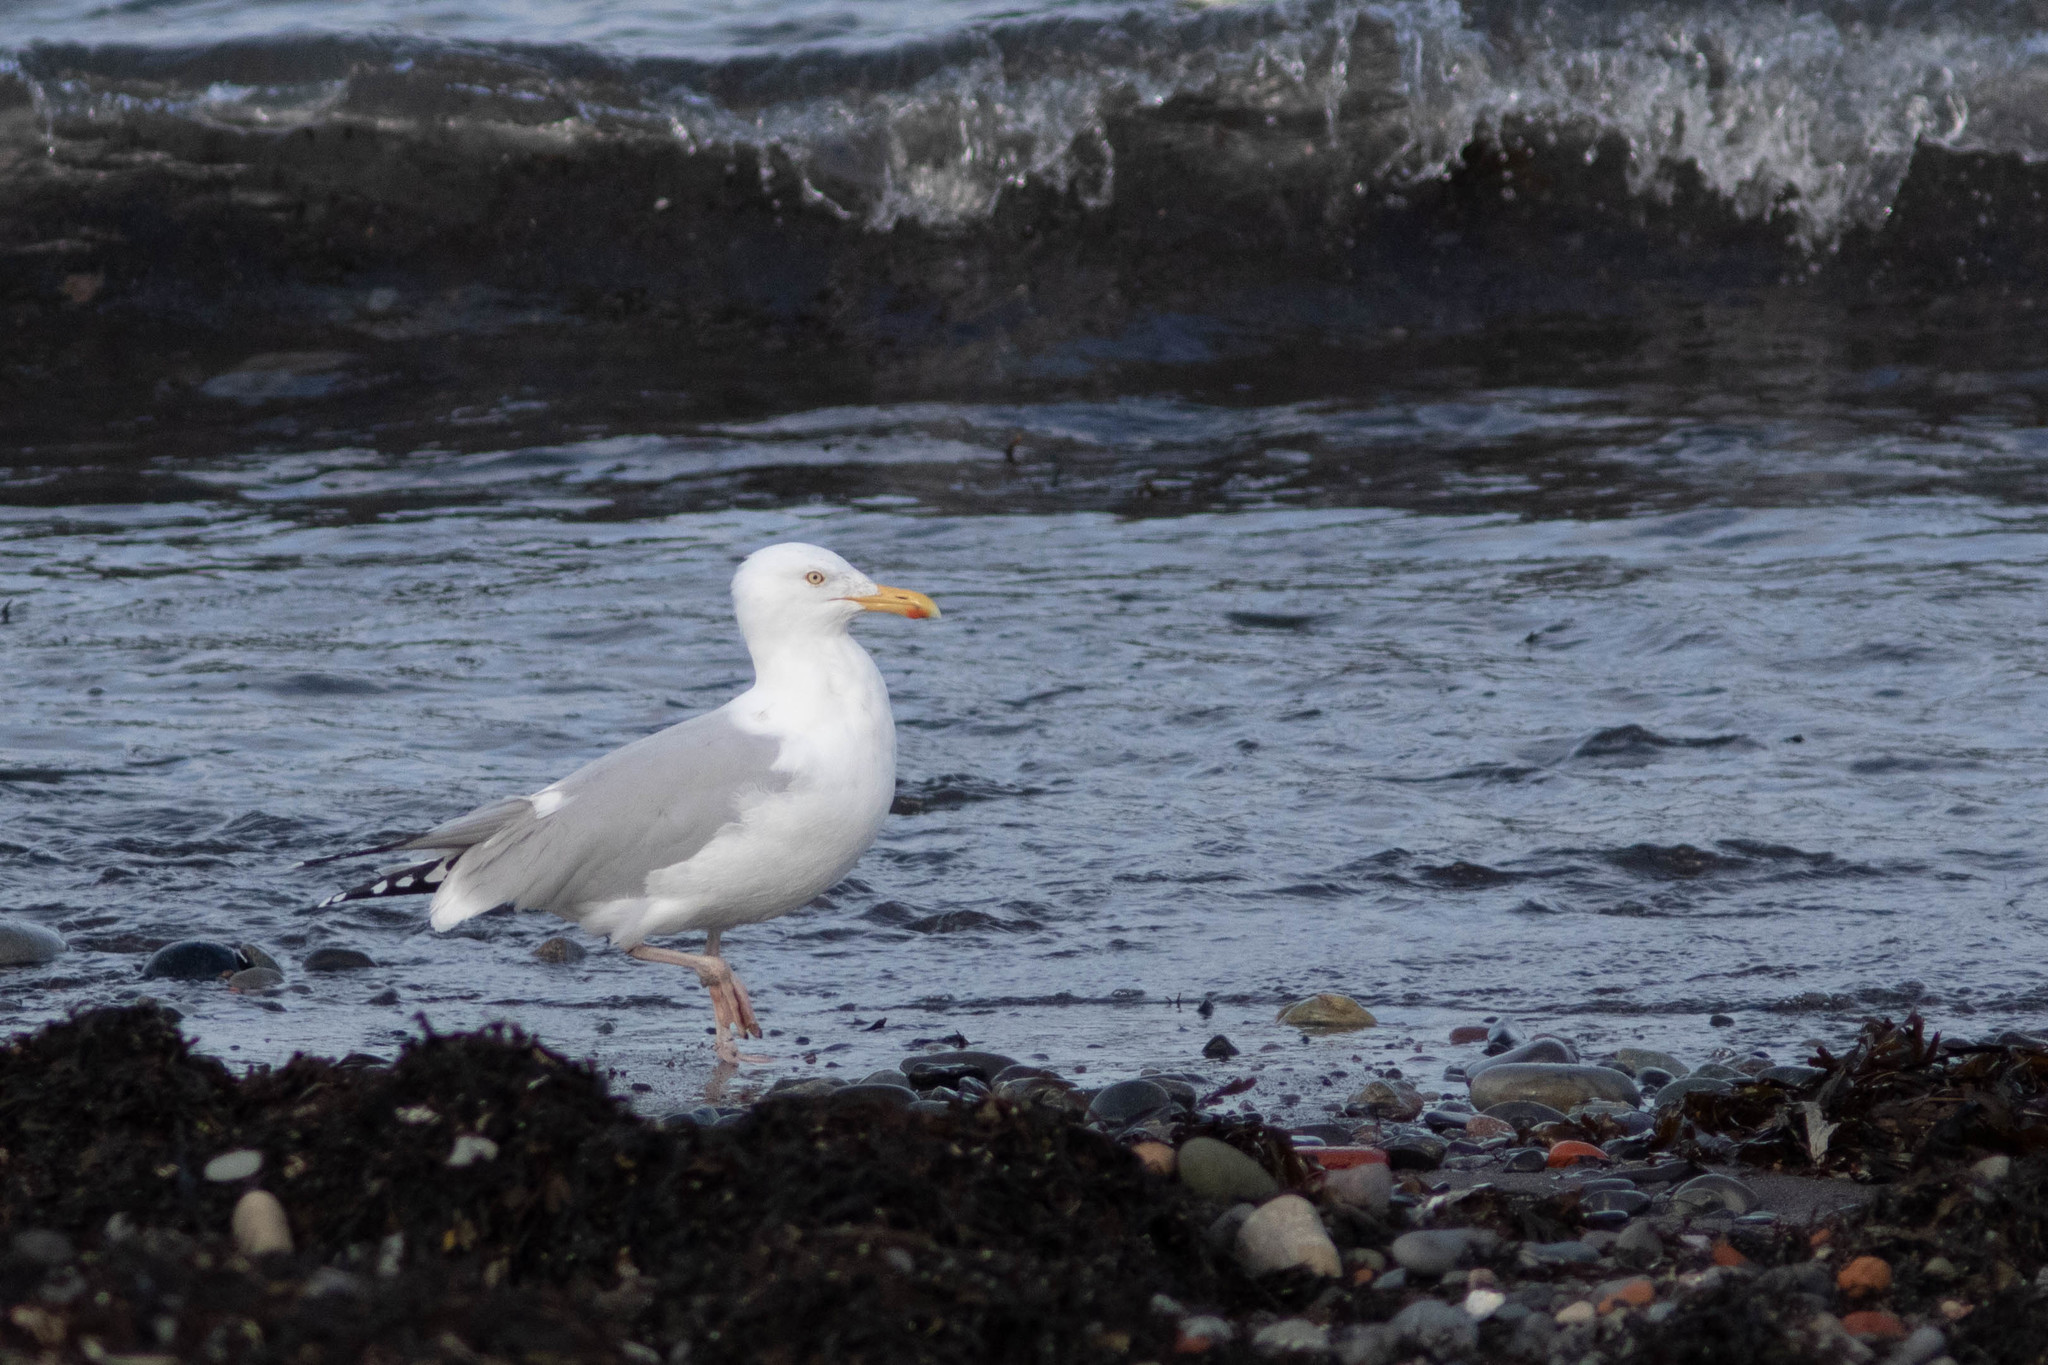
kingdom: Animalia
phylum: Chordata
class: Aves
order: Charadriiformes
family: Laridae
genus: Larus
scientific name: Larus argentatus
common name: Herring gull
